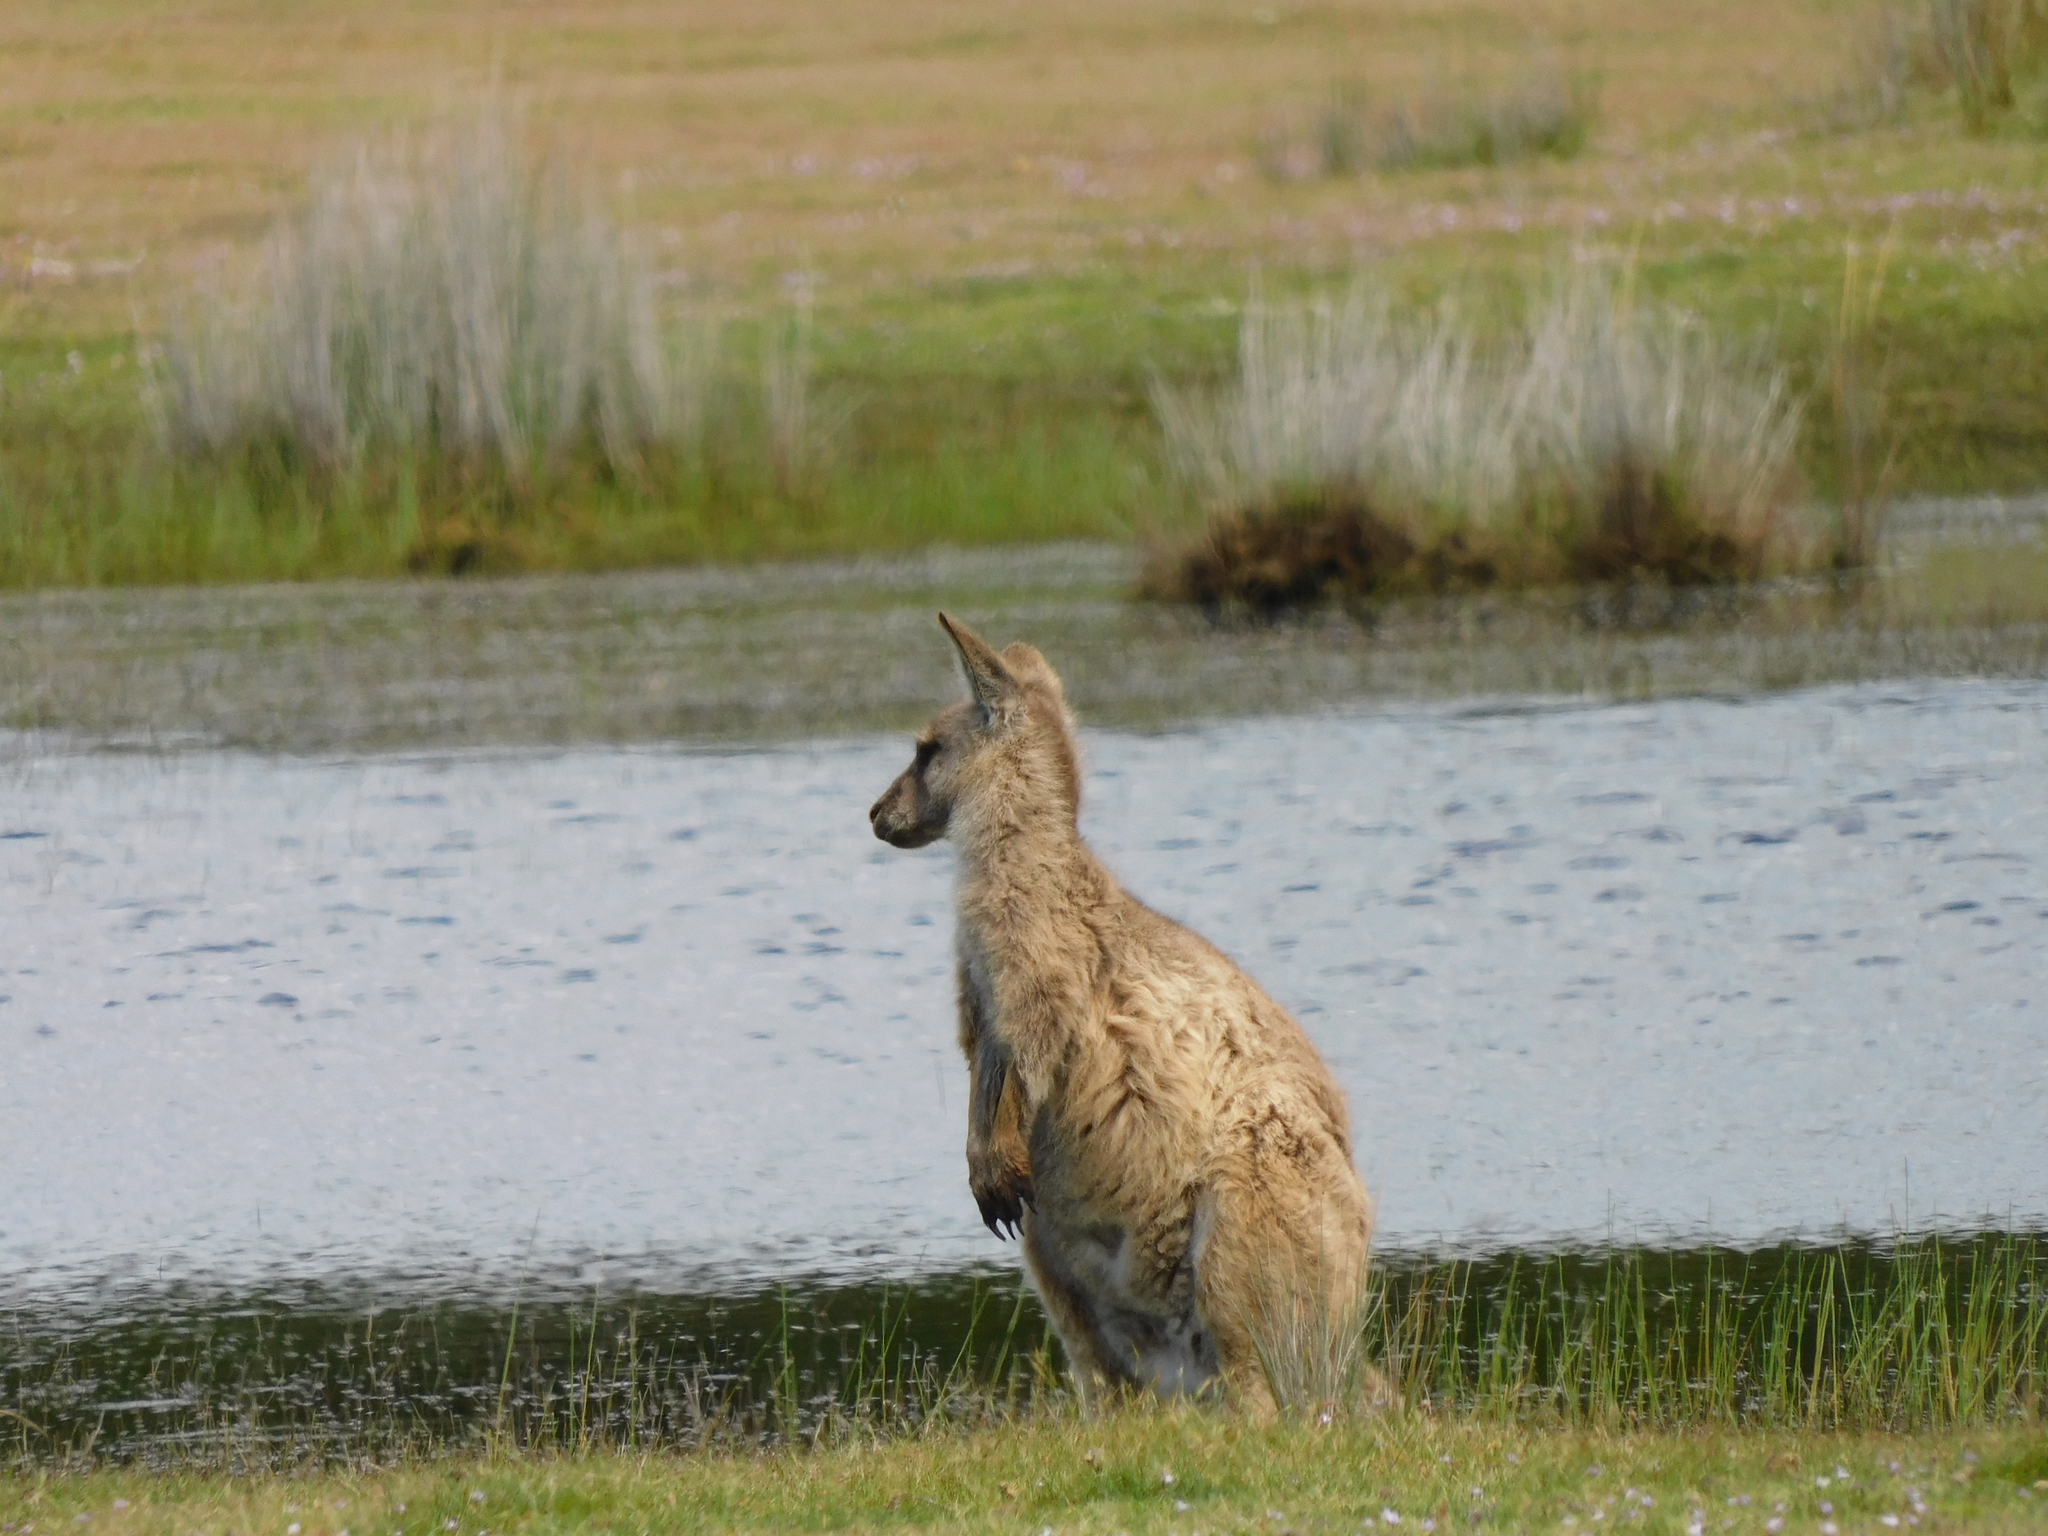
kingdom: Animalia
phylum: Chordata
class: Mammalia
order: Diprotodontia
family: Macropodidae
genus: Macropus
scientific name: Macropus giganteus
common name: Eastern grey kangaroo
